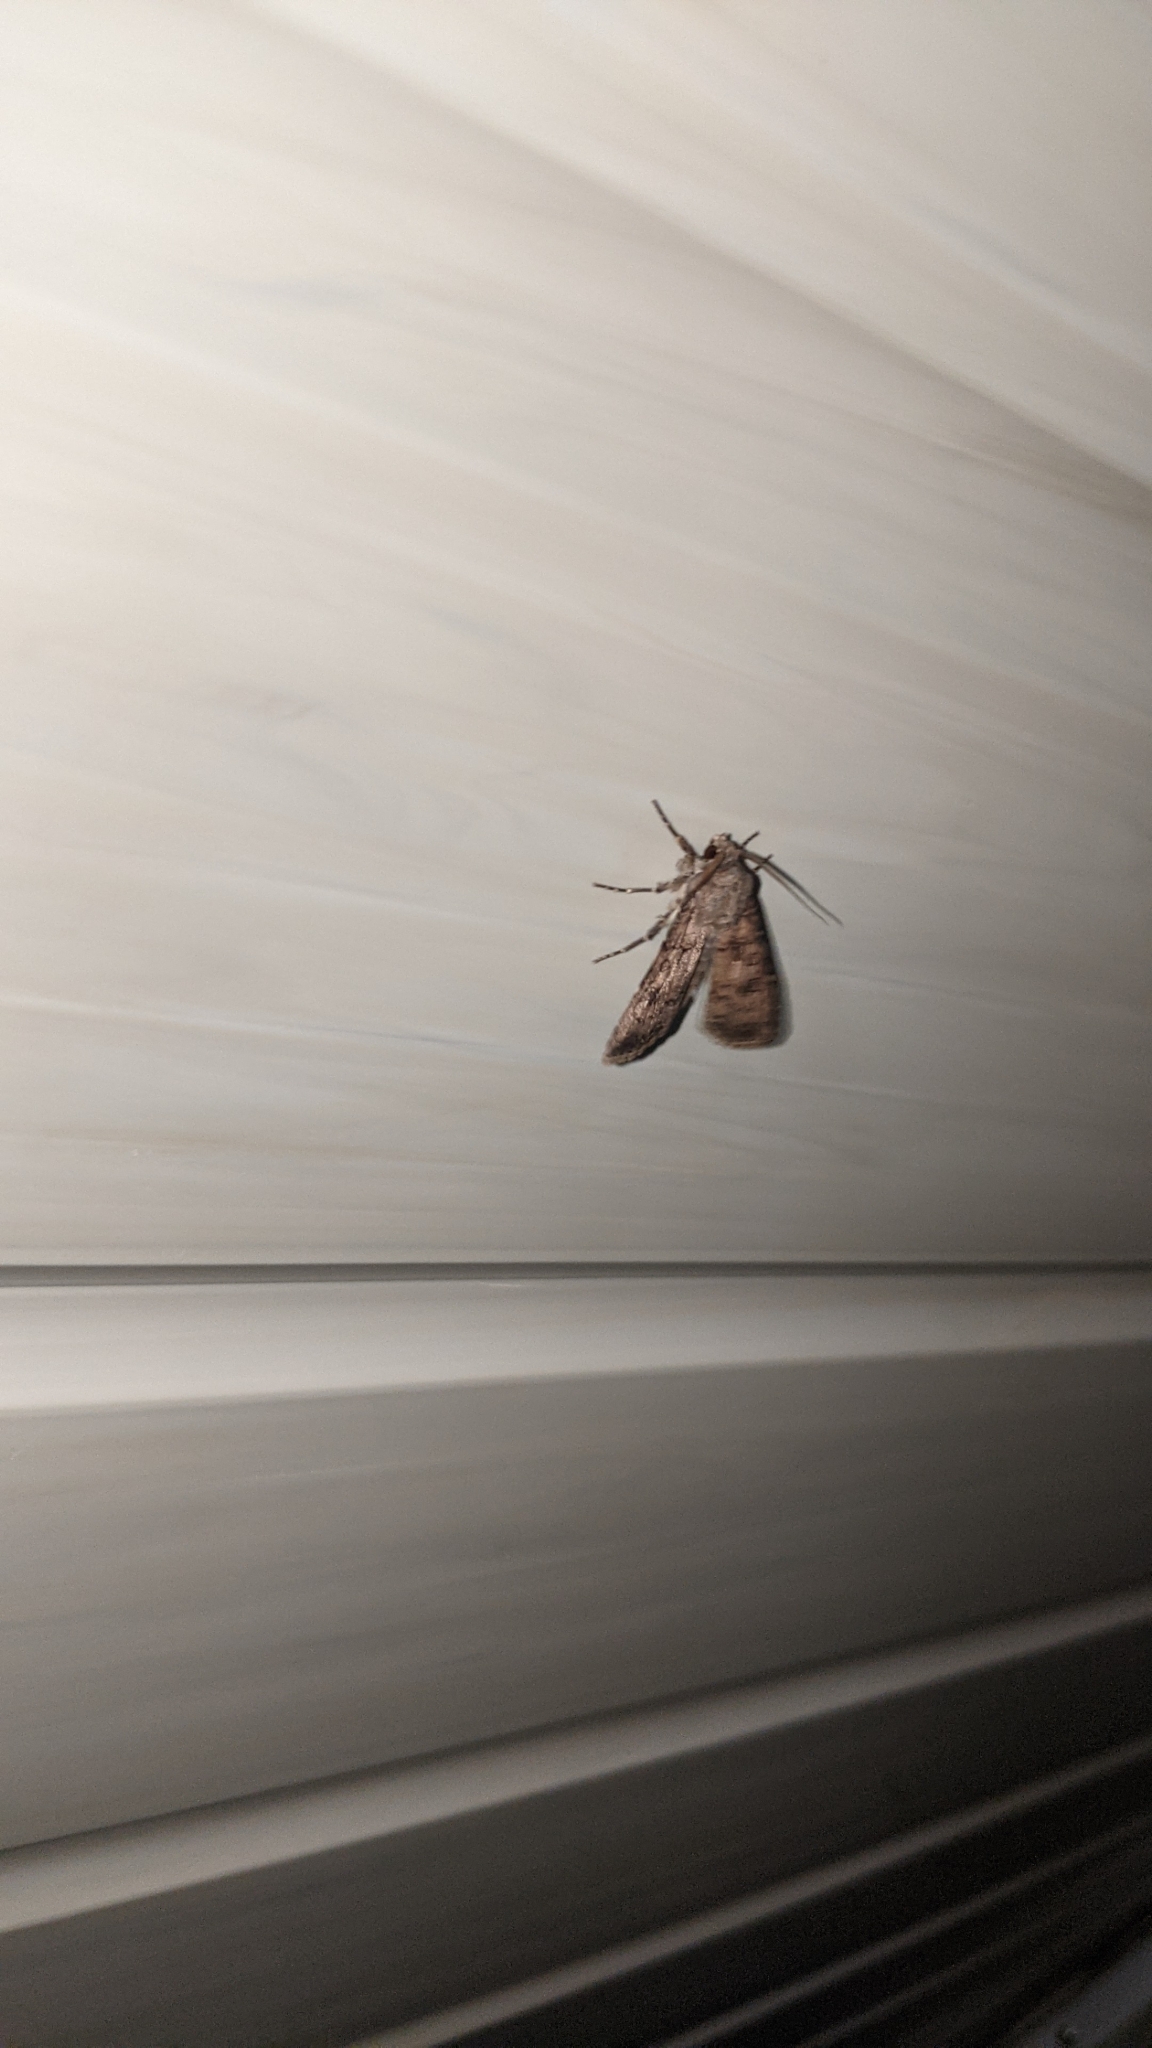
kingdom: Animalia
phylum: Arthropoda
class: Insecta
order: Lepidoptera
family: Noctuidae
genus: Agrotis
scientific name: Agrotis segetum
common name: Turnip moth
